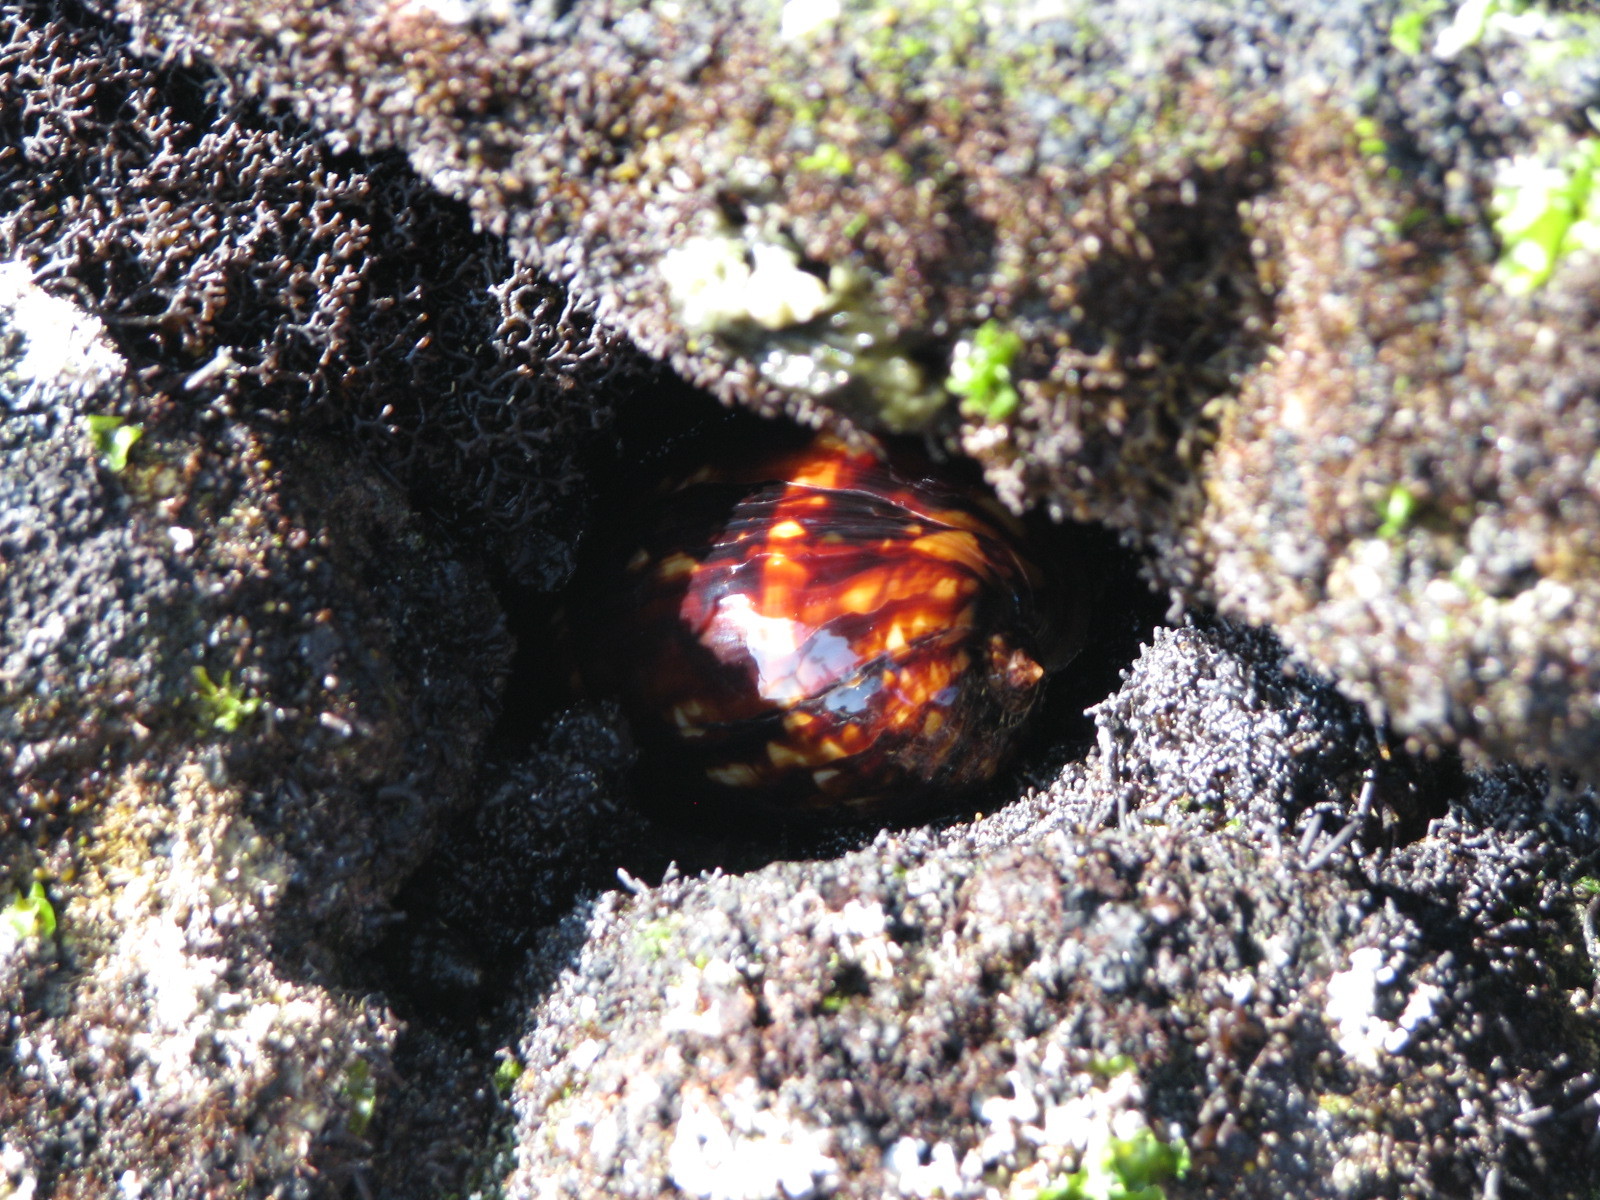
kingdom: Animalia
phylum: Mollusca
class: Gastropoda
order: Littorinimorpha
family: Cypraeidae
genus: Mauritia
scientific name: Mauritia mauritiana
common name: Hump-backed cowrie
